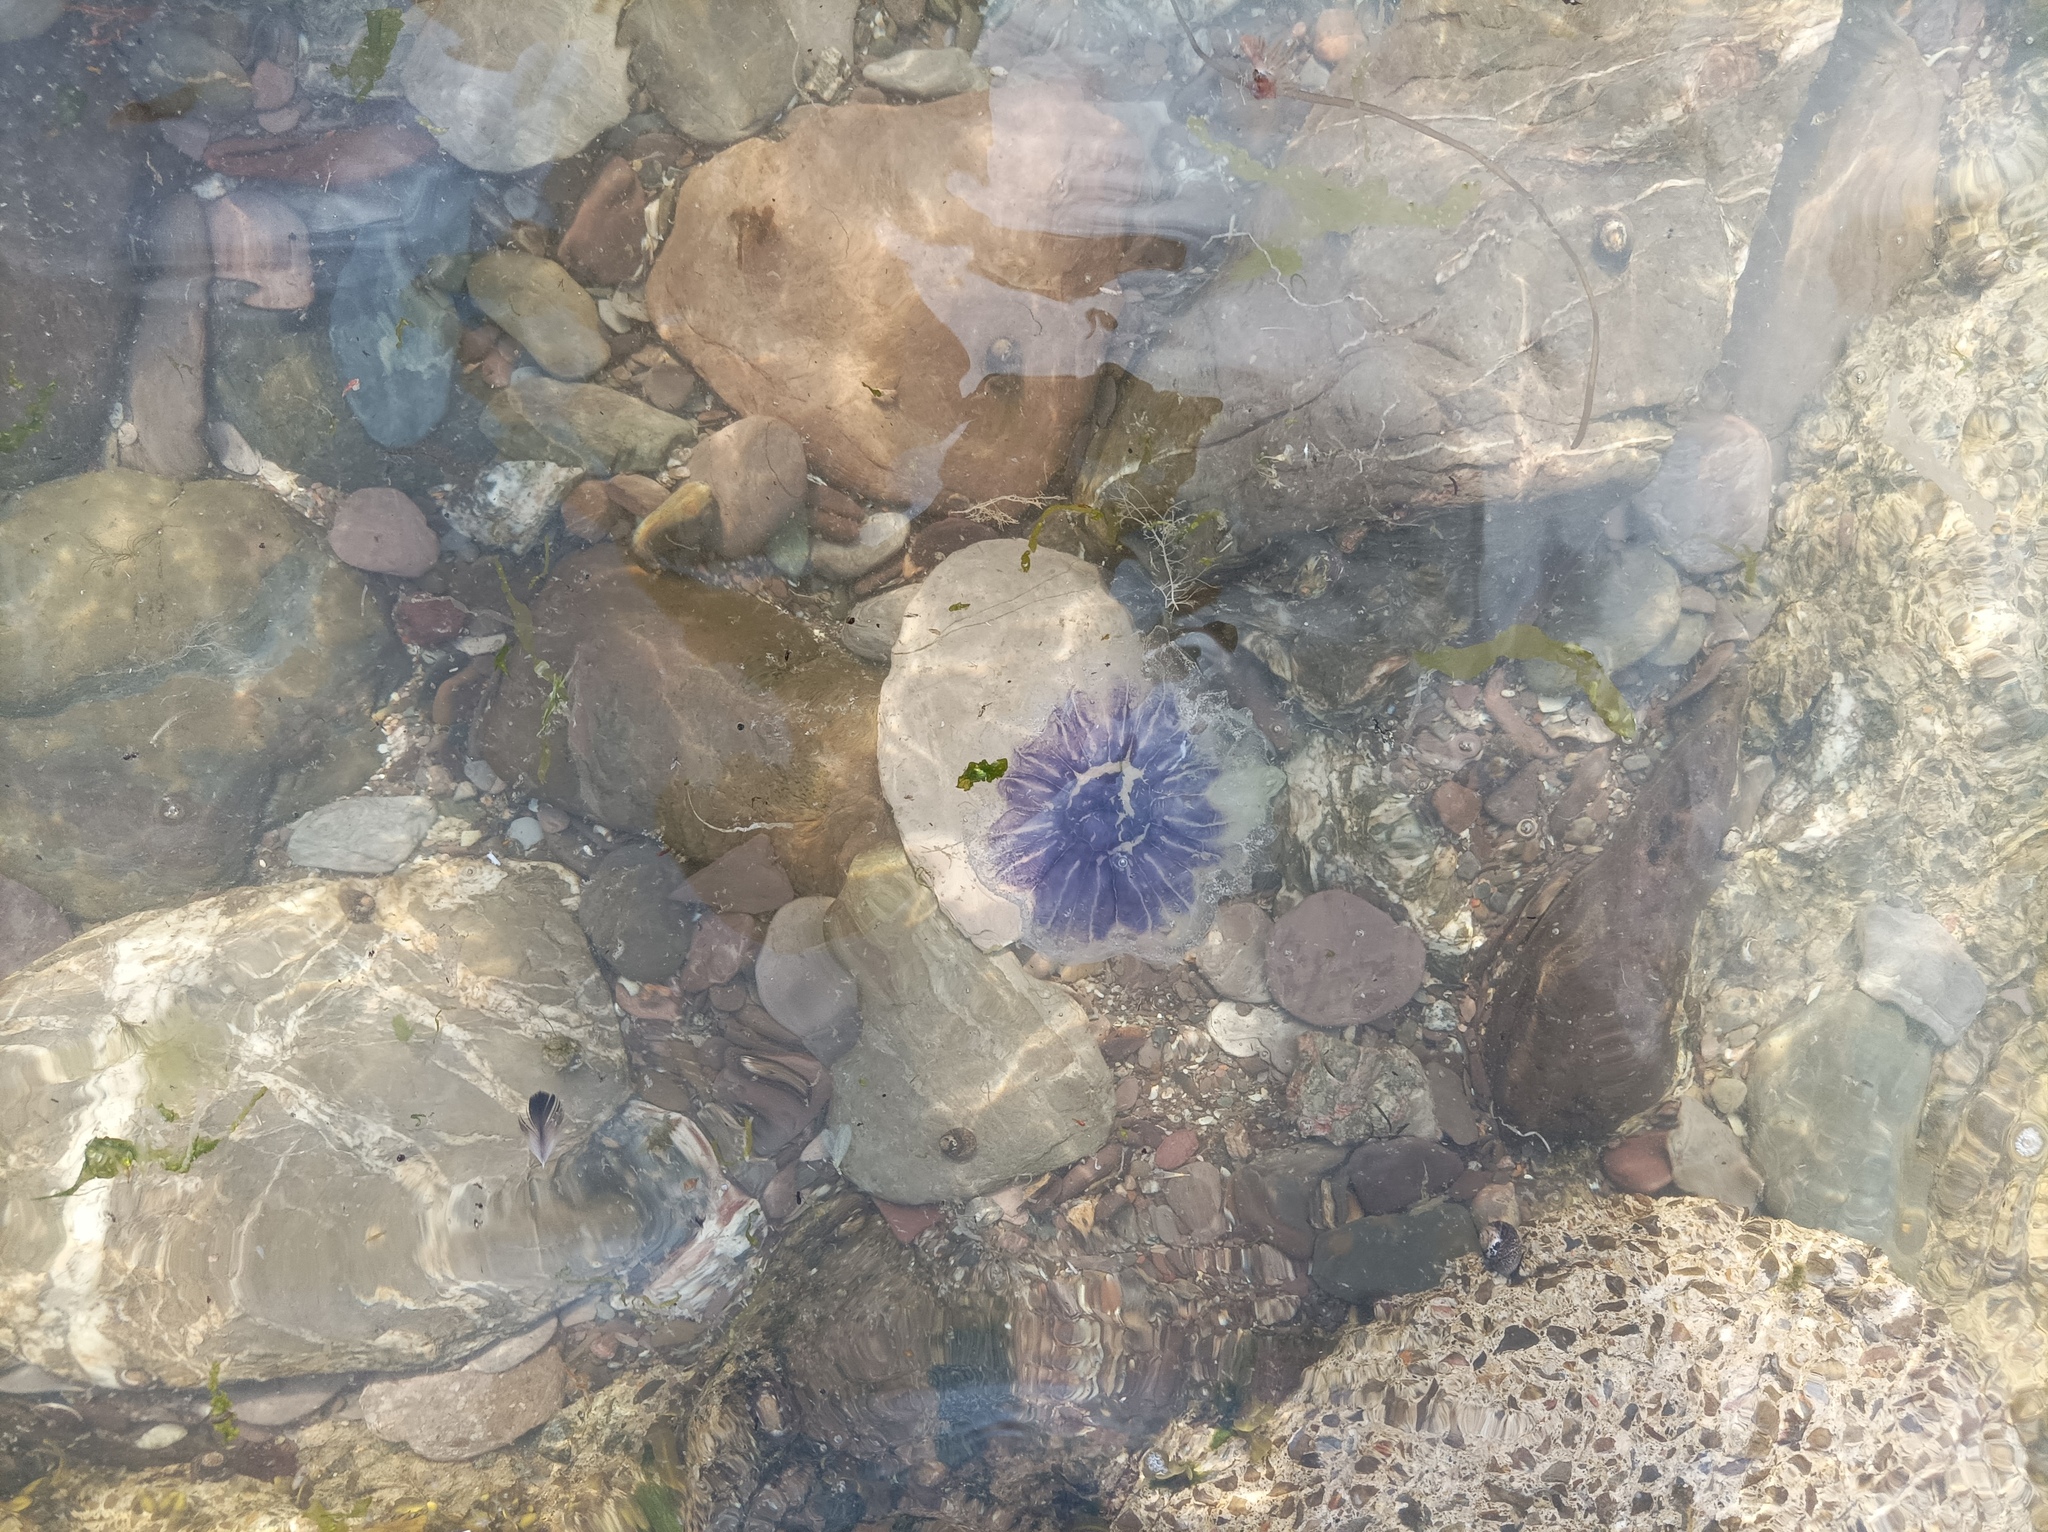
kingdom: Animalia
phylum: Cnidaria
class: Scyphozoa
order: Semaeostomeae
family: Cyaneidae
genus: Cyanea
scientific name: Cyanea lamarckii
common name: Blue jellyfish
